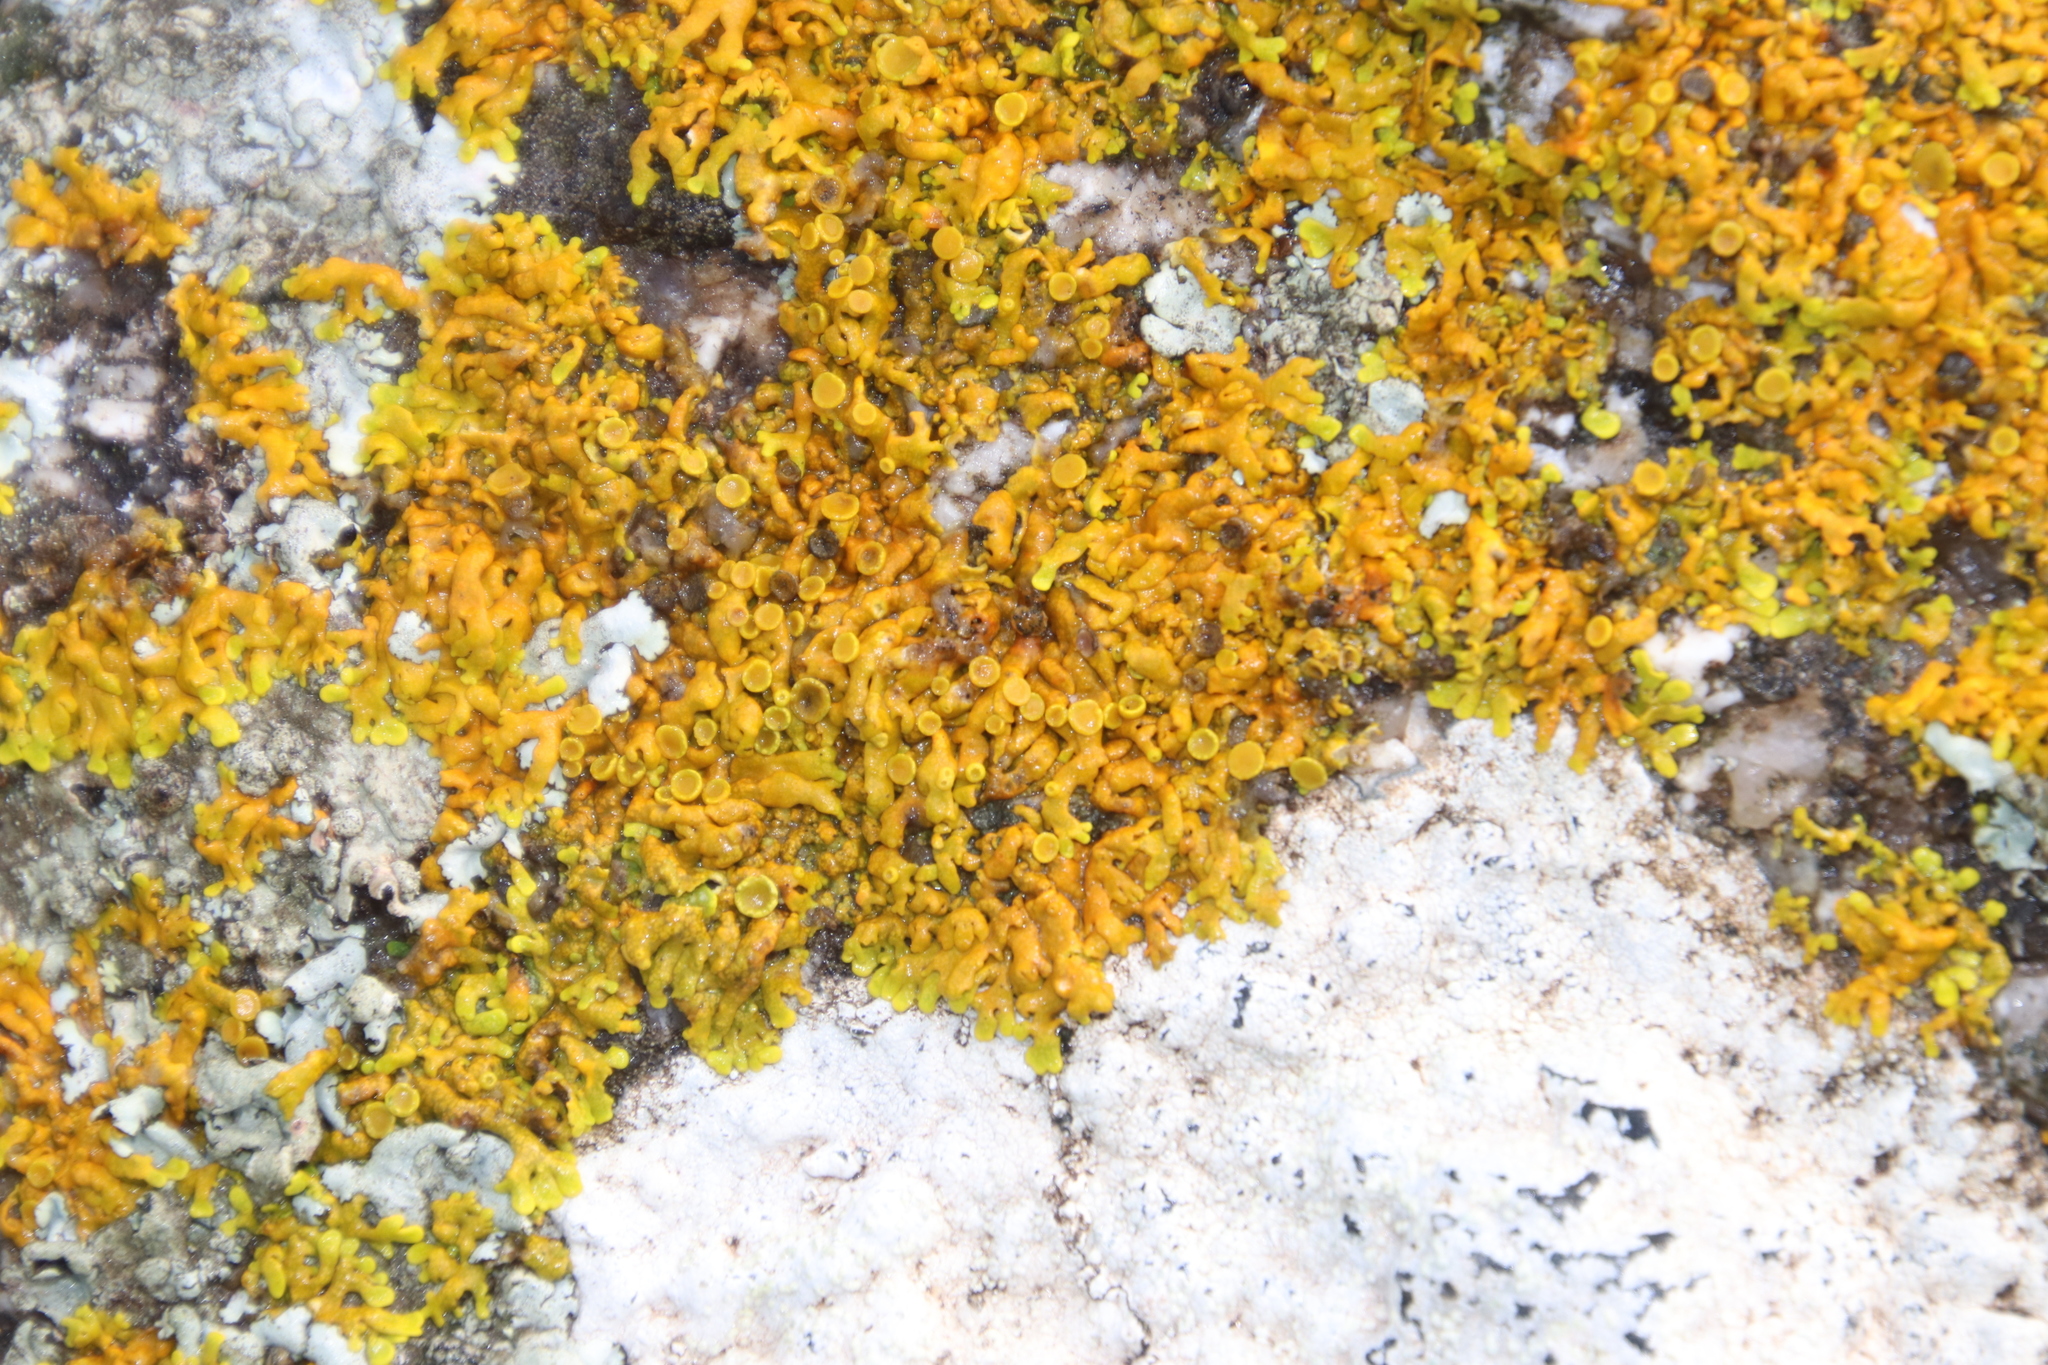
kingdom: Fungi
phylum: Ascomycota
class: Lecanoromycetes
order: Teloschistales
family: Teloschistaceae
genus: Dufourea
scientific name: Dufourea capensis
